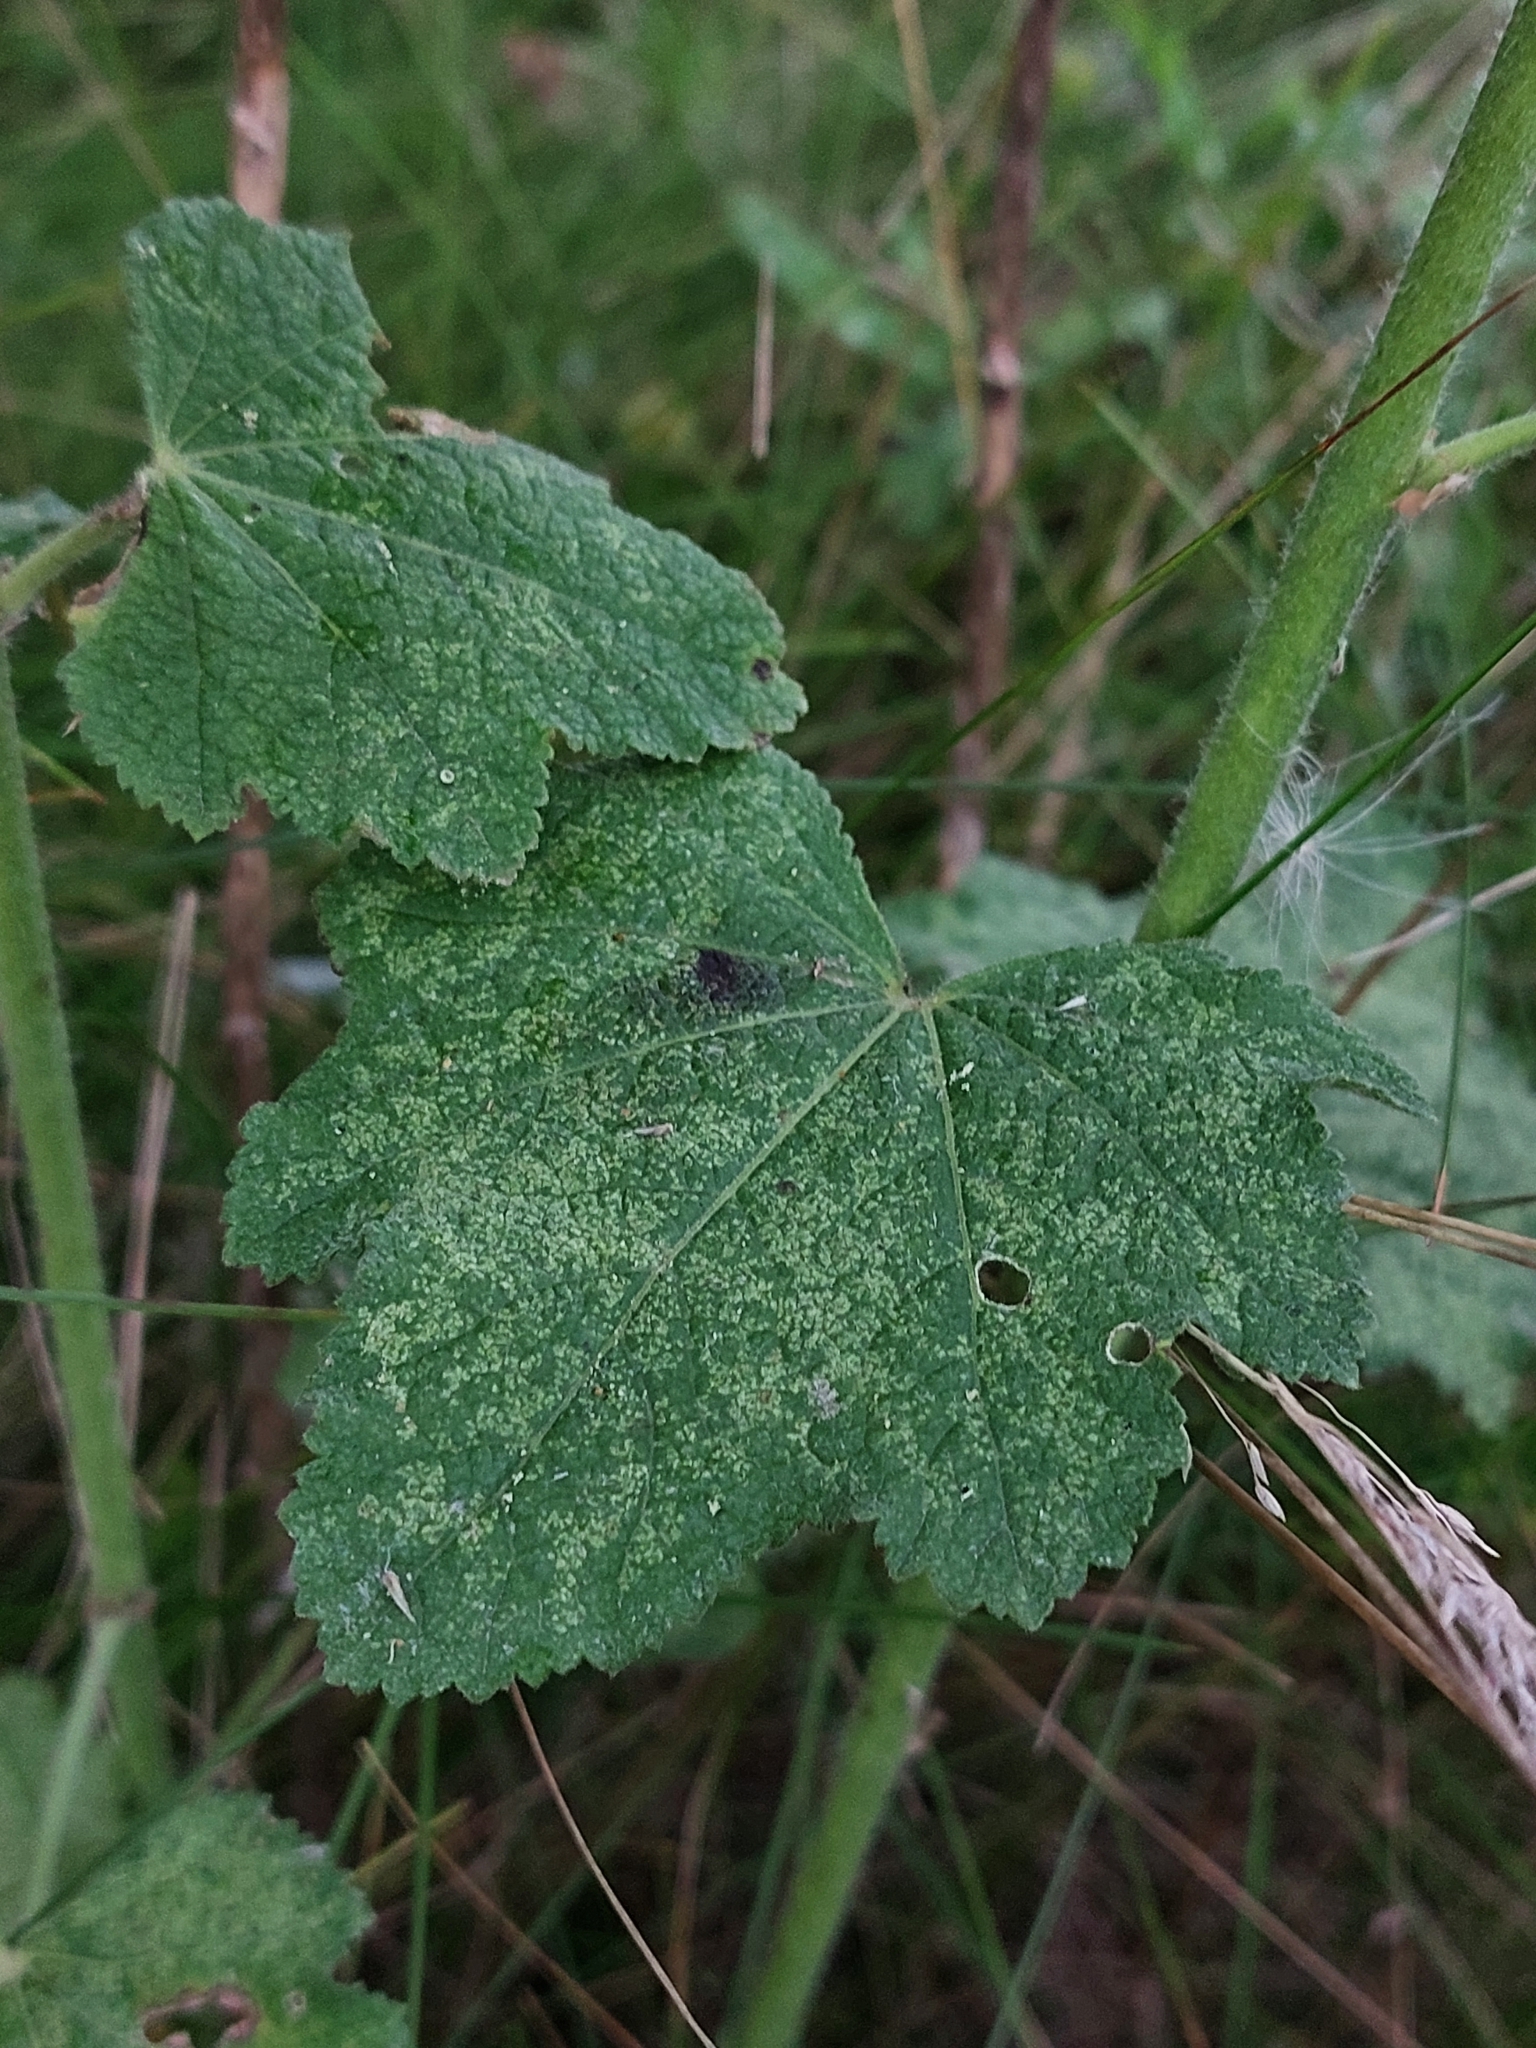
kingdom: Plantae
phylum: Tracheophyta
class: Magnoliopsida
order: Malvales
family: Malvaceae
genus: Alcea
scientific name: Alcea rosea
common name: Hollyhock
